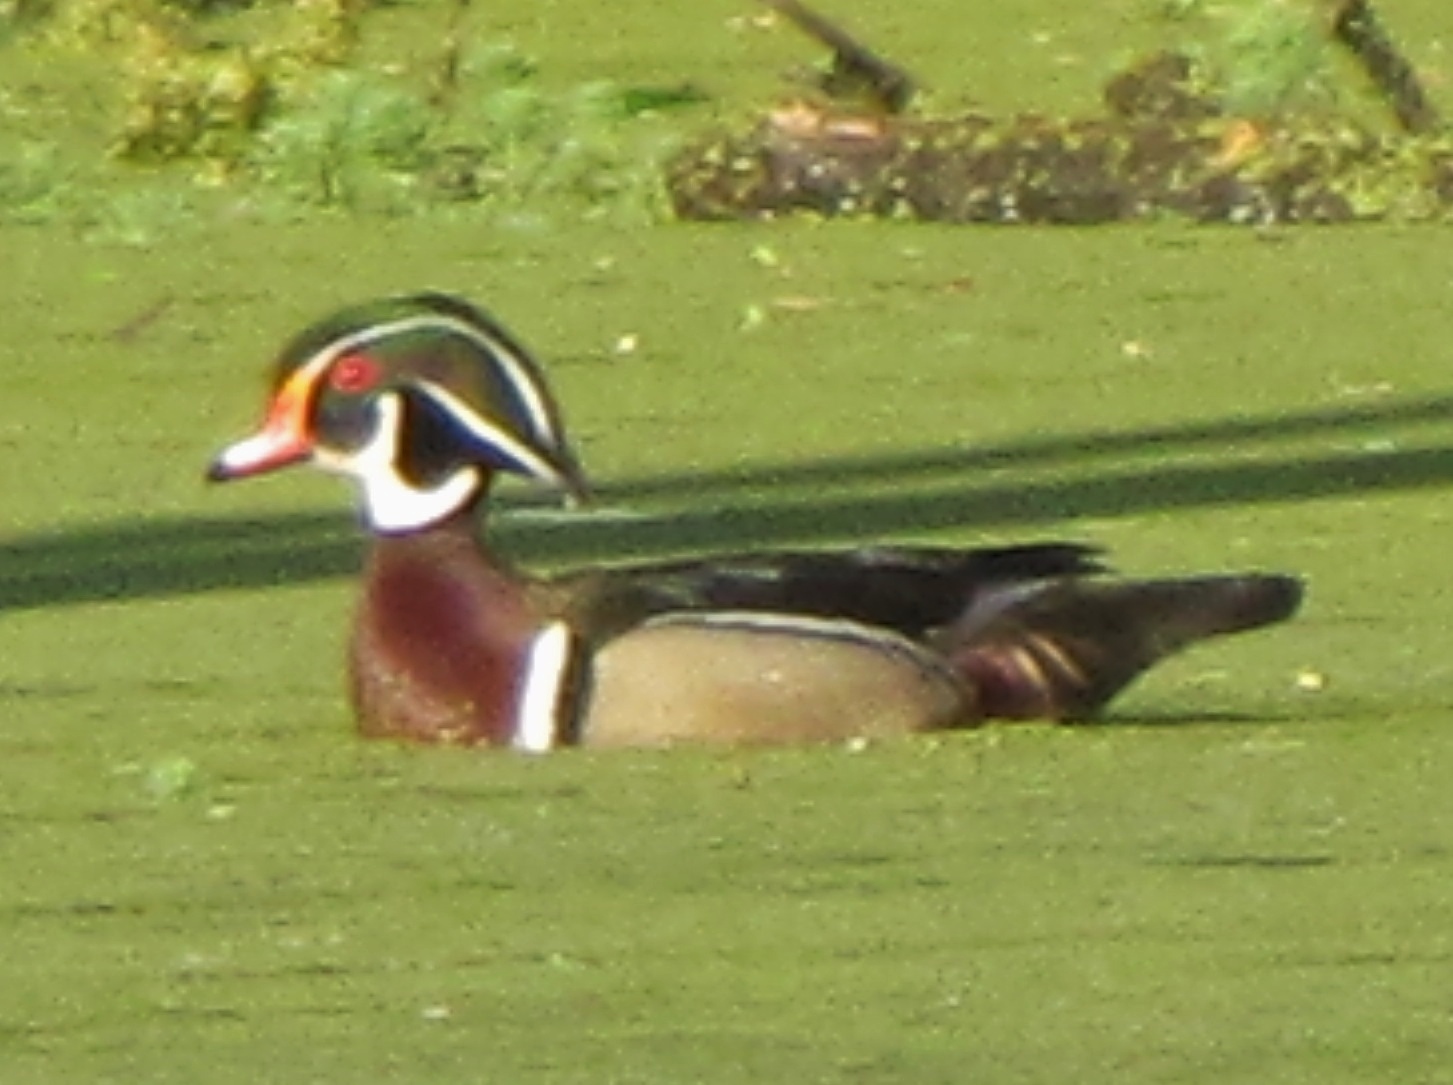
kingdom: Animalia
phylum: Chordata
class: Aves
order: Anseriformes
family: Anatidae
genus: Aix
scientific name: Aix sponsa
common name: Wood duck
